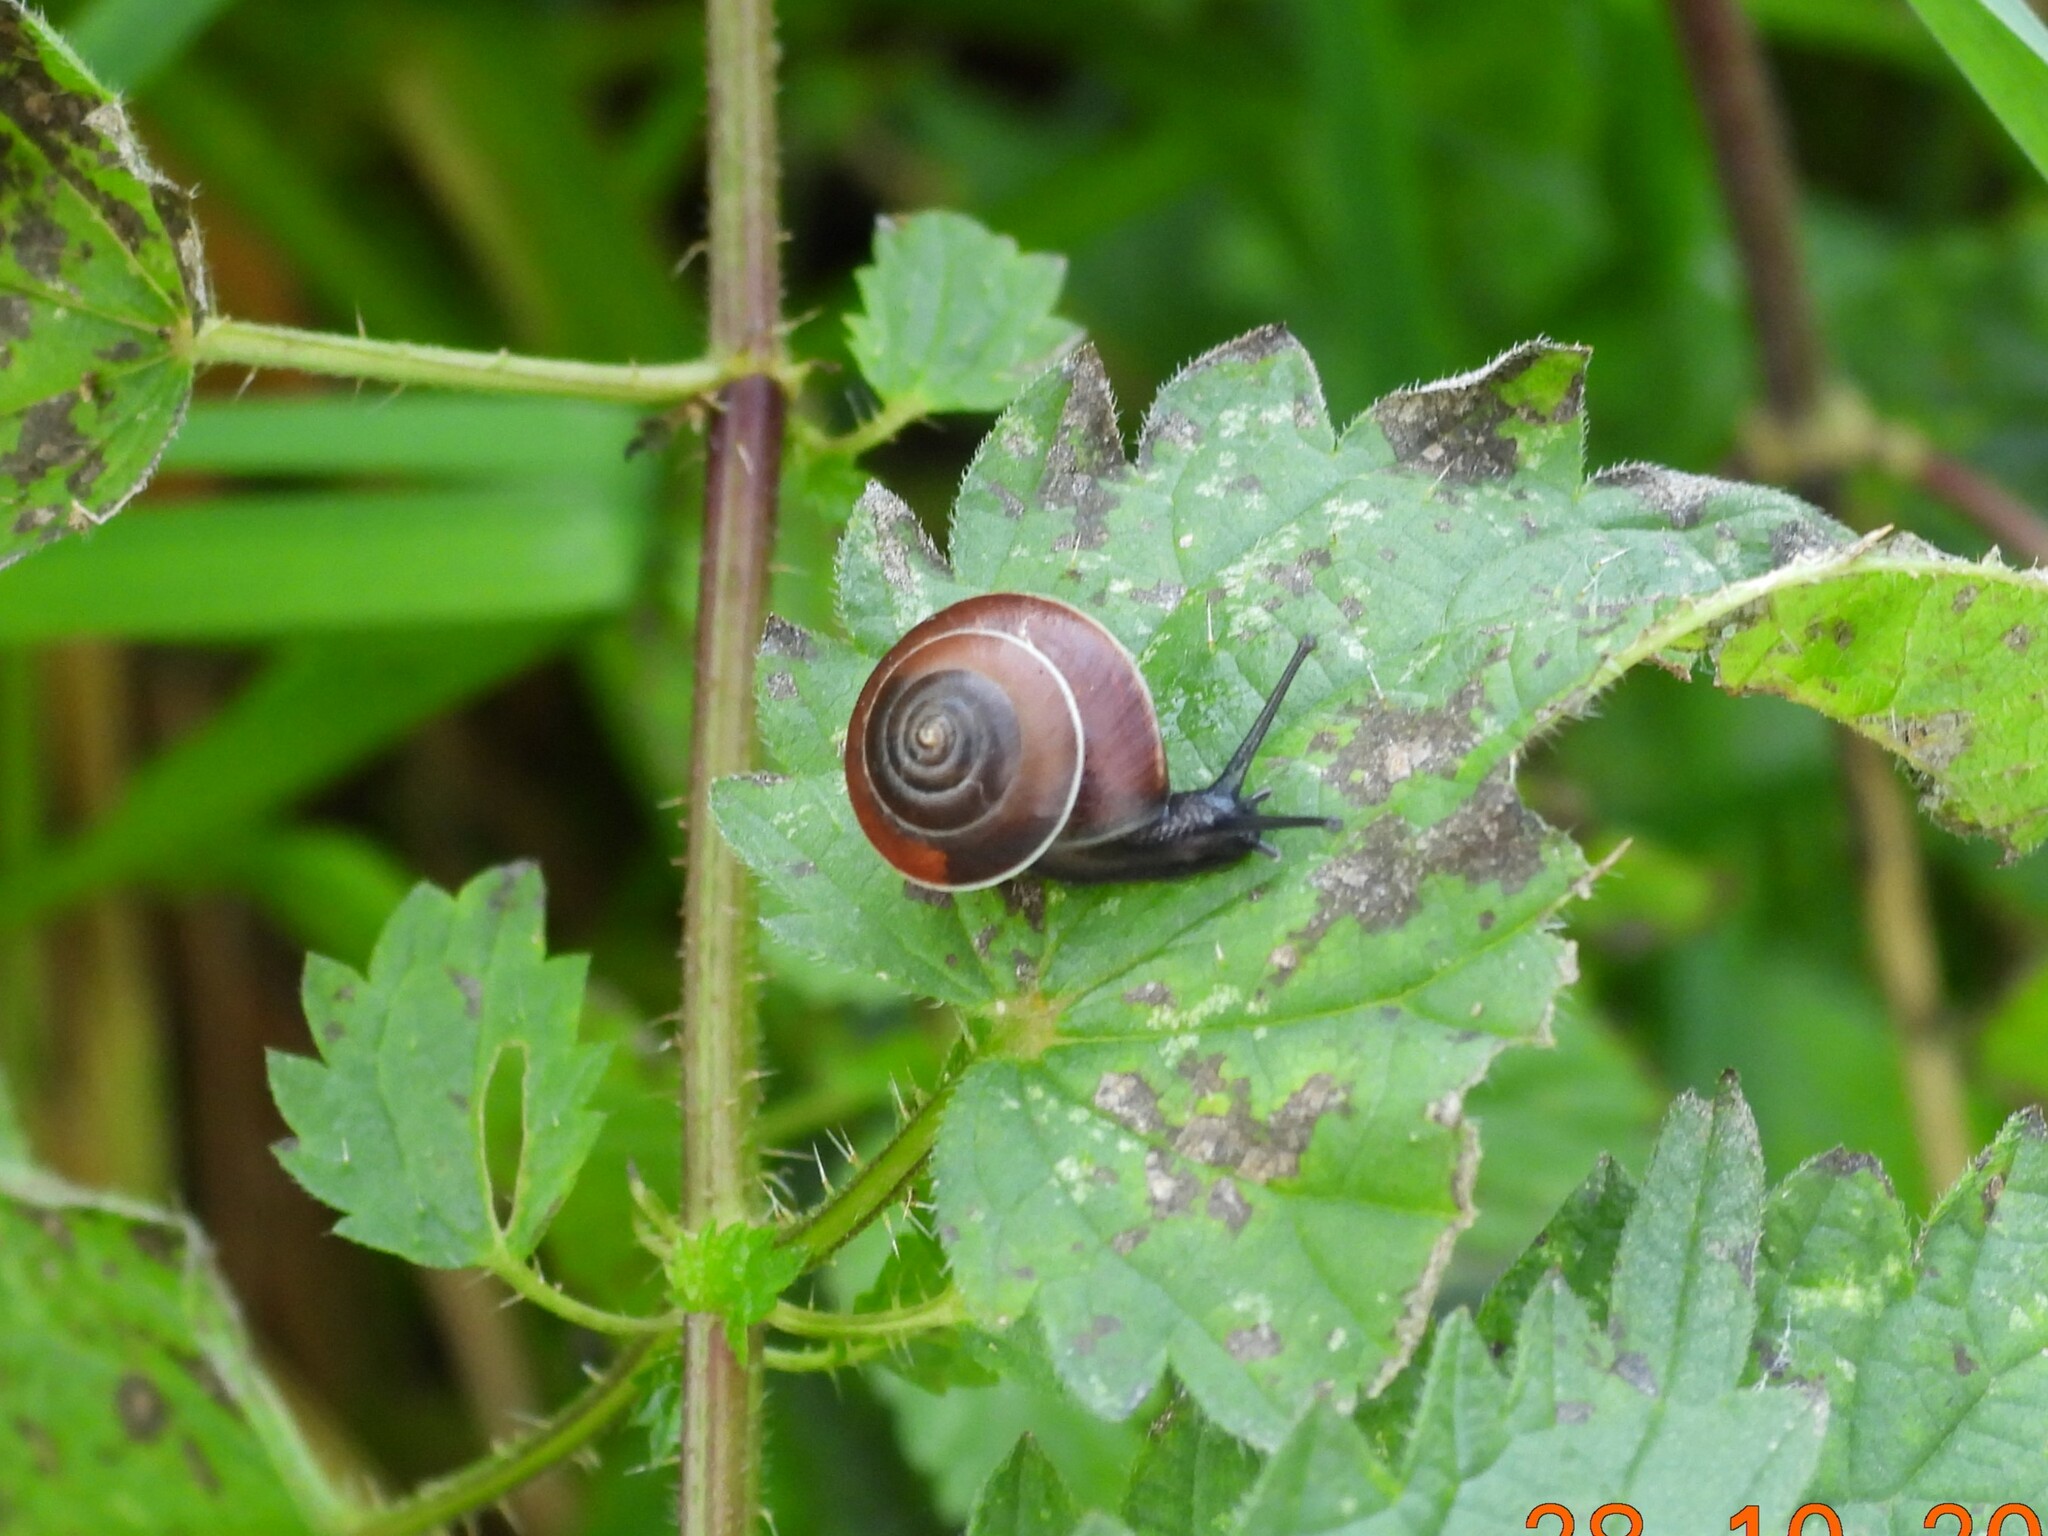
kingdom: Animalia
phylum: Mollusca
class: Gastropoda
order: Stylommatophora
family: Hygromiidae
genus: Hygromia
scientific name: Hygromia cinctella
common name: Girdled snail
